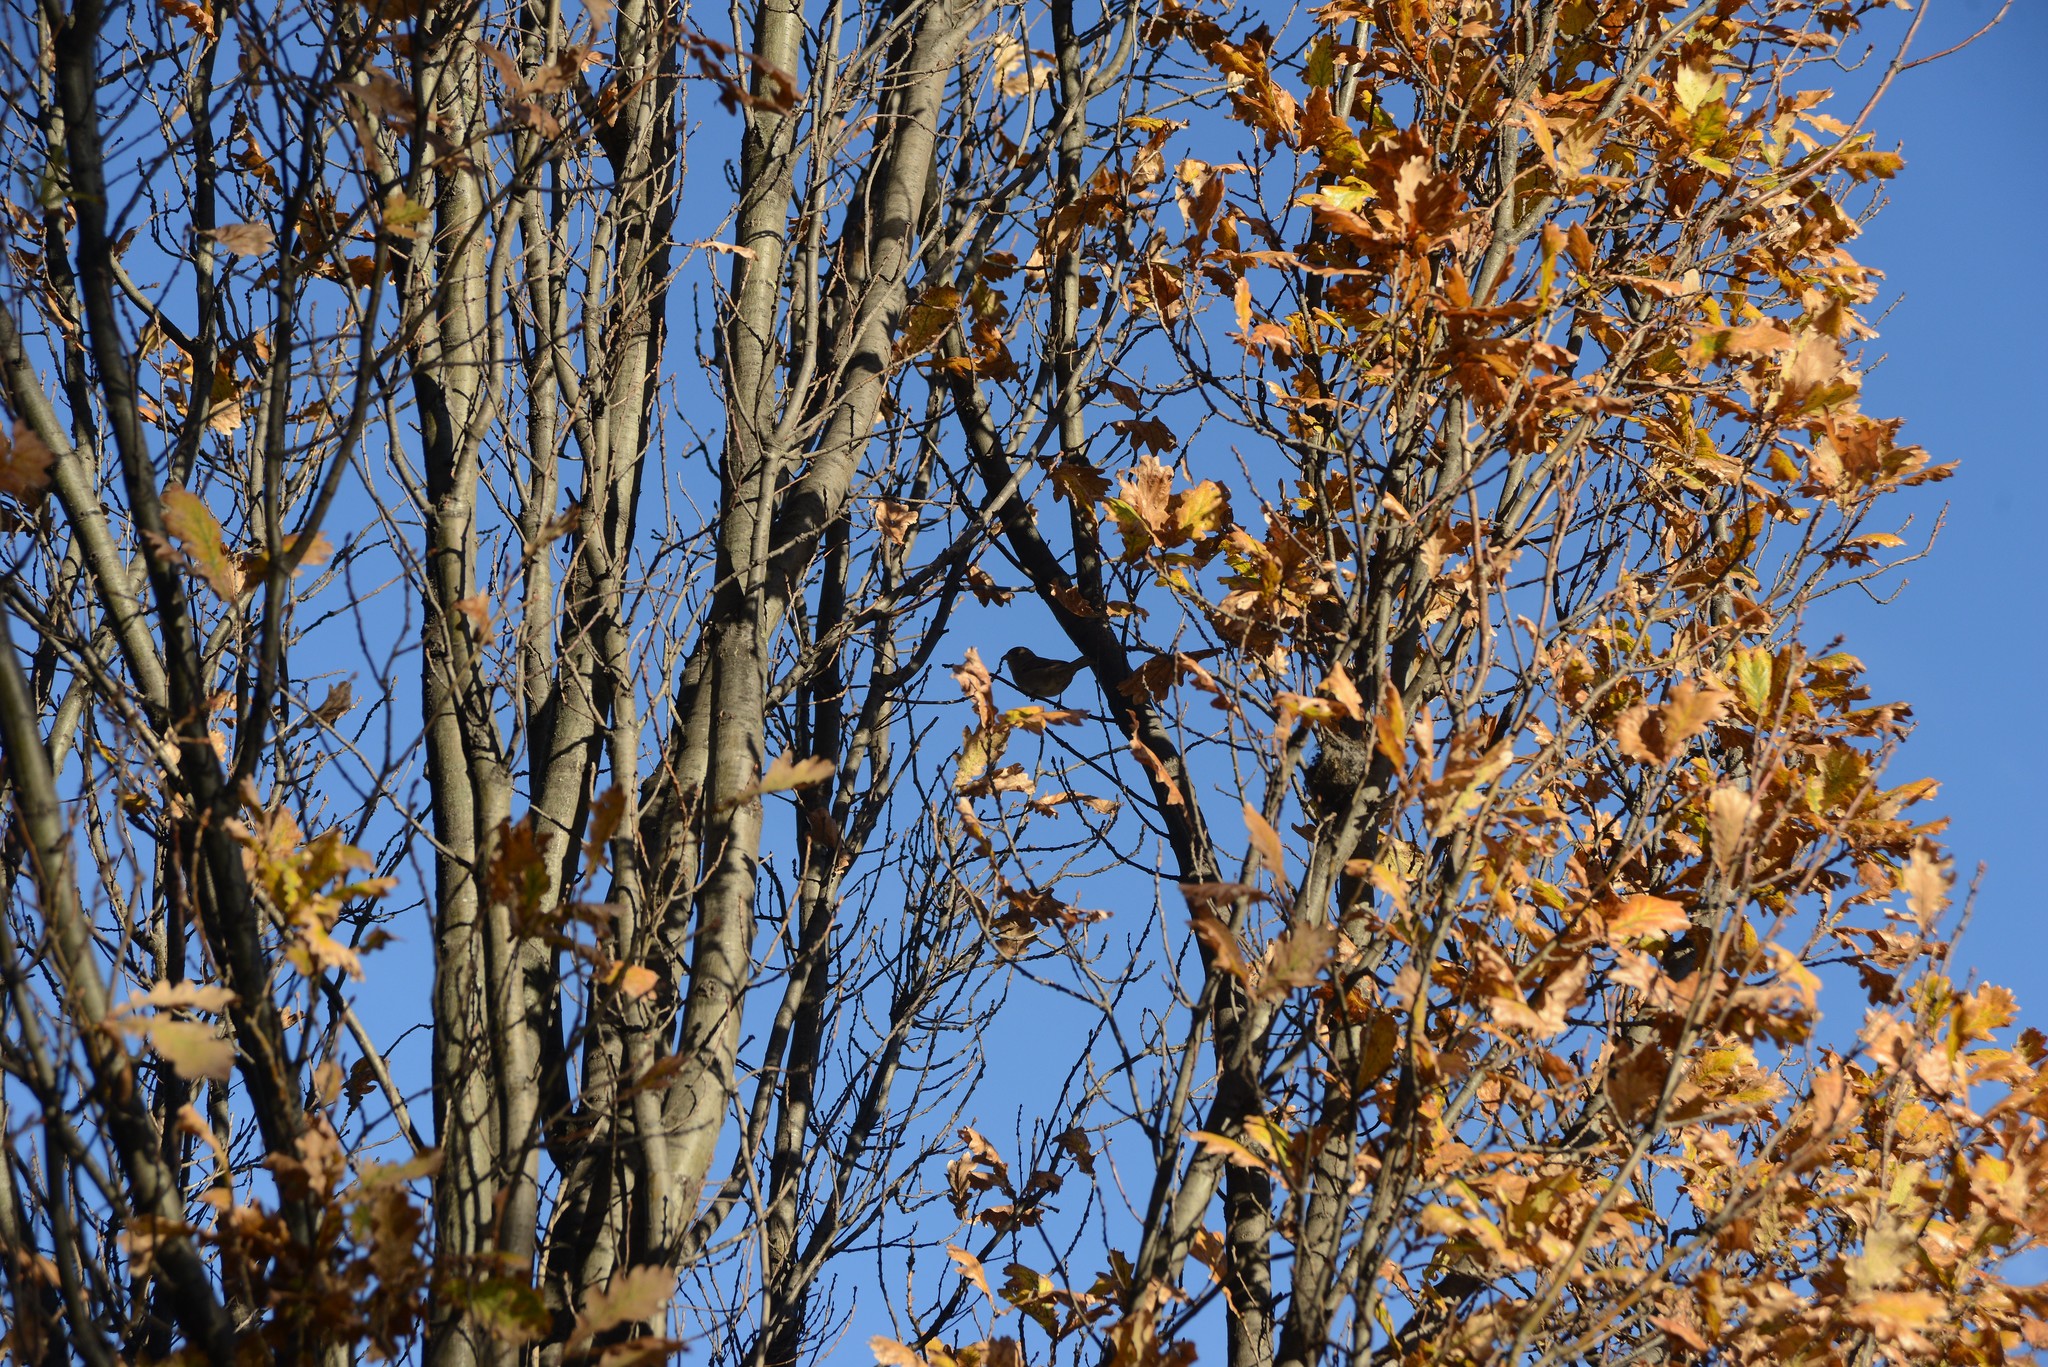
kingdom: Animalia
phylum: Chordata
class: Aves
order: Passeriformes
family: Passeridae
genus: Passer
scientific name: Passer domesticus
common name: House sparrow
